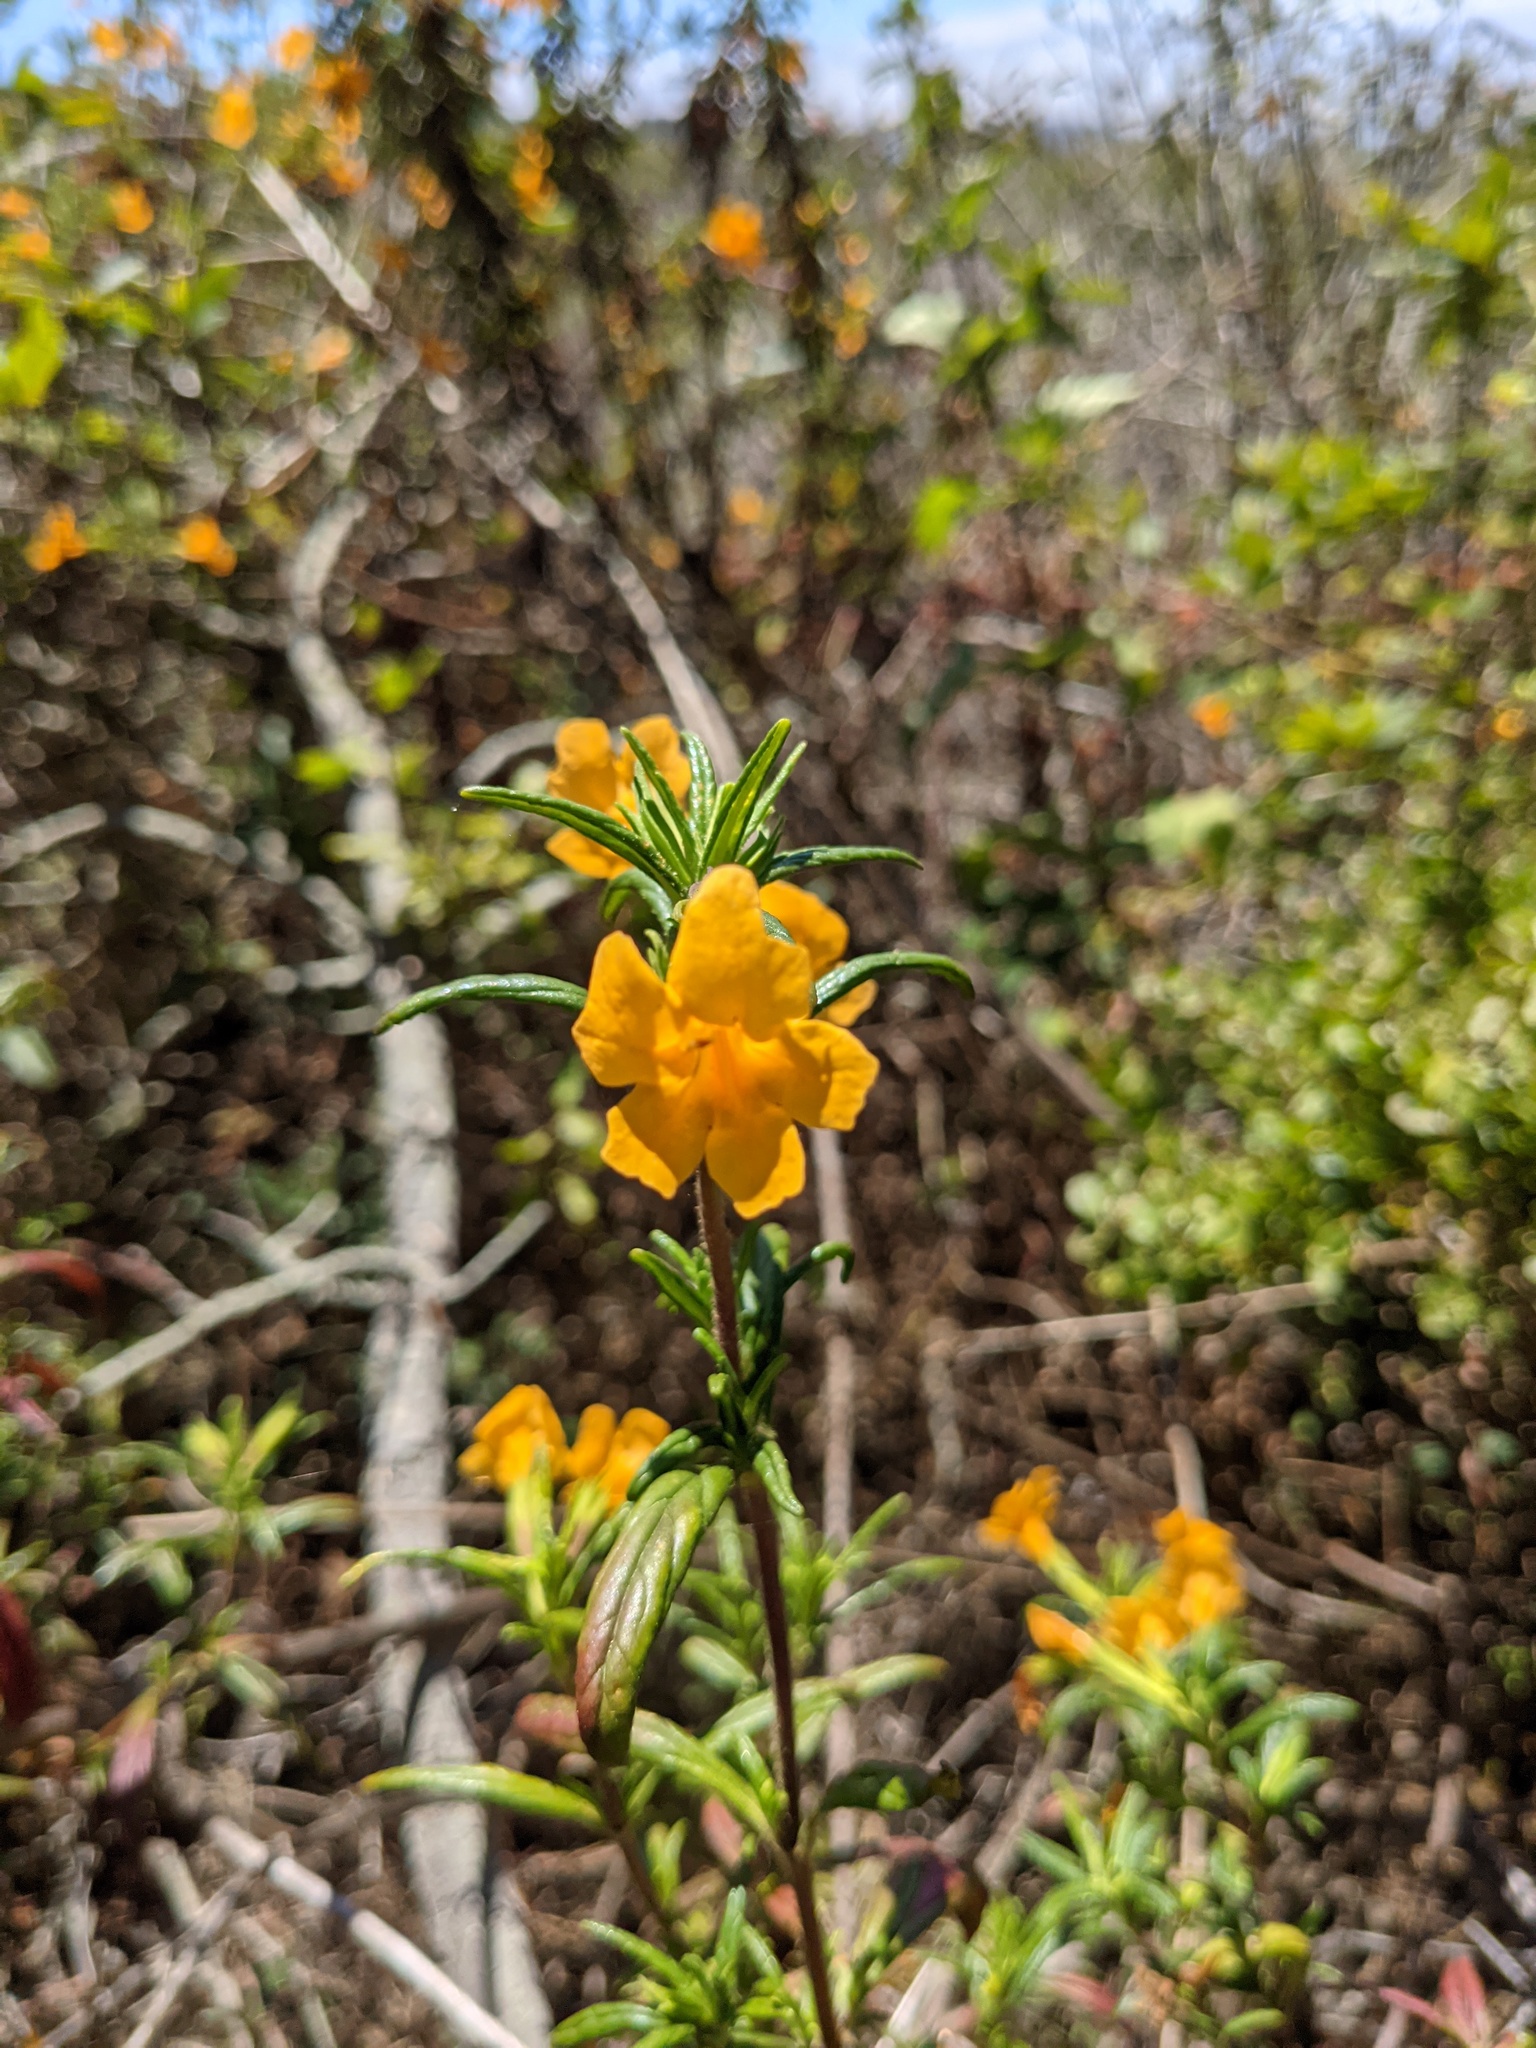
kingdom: Plantae
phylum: Tracheophyta
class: Magnoliopsida
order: Lamiales
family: Phrymaceae
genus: Diplacus
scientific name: Diplacus aurantiacus
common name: Bush monkey-flower
